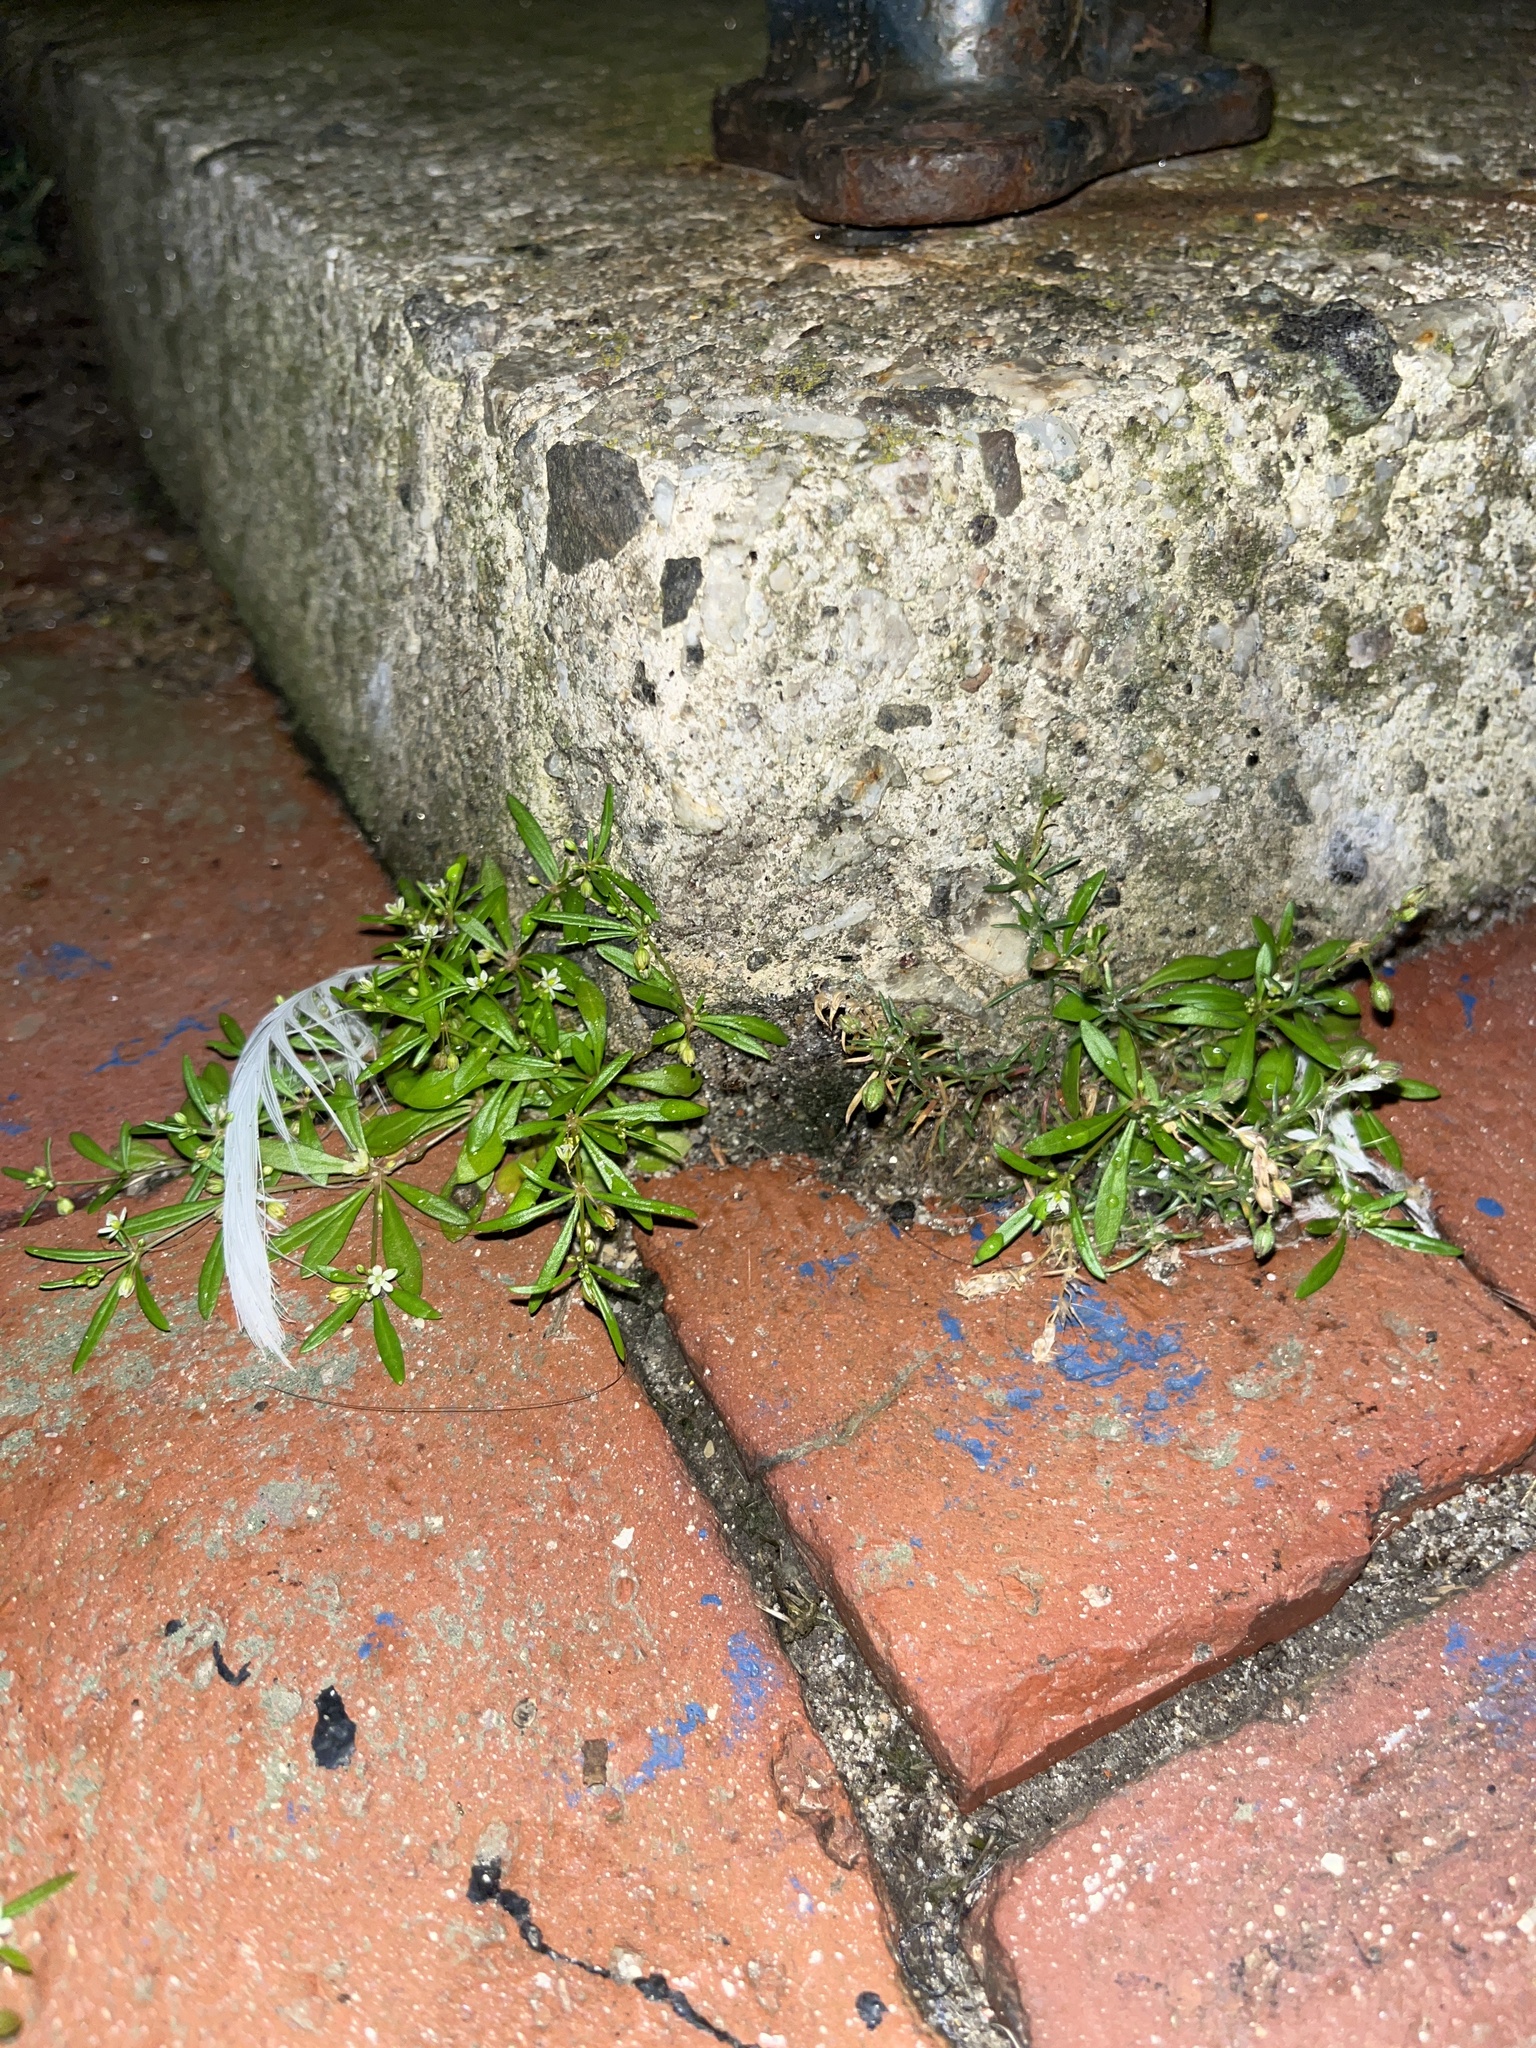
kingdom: Plantae
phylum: Tracheophyta
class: Magnoliopsida
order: Caryophyllales
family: Molluginaceae
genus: Mollugo
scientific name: Mollugo verticillata
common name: Green carpetweed
